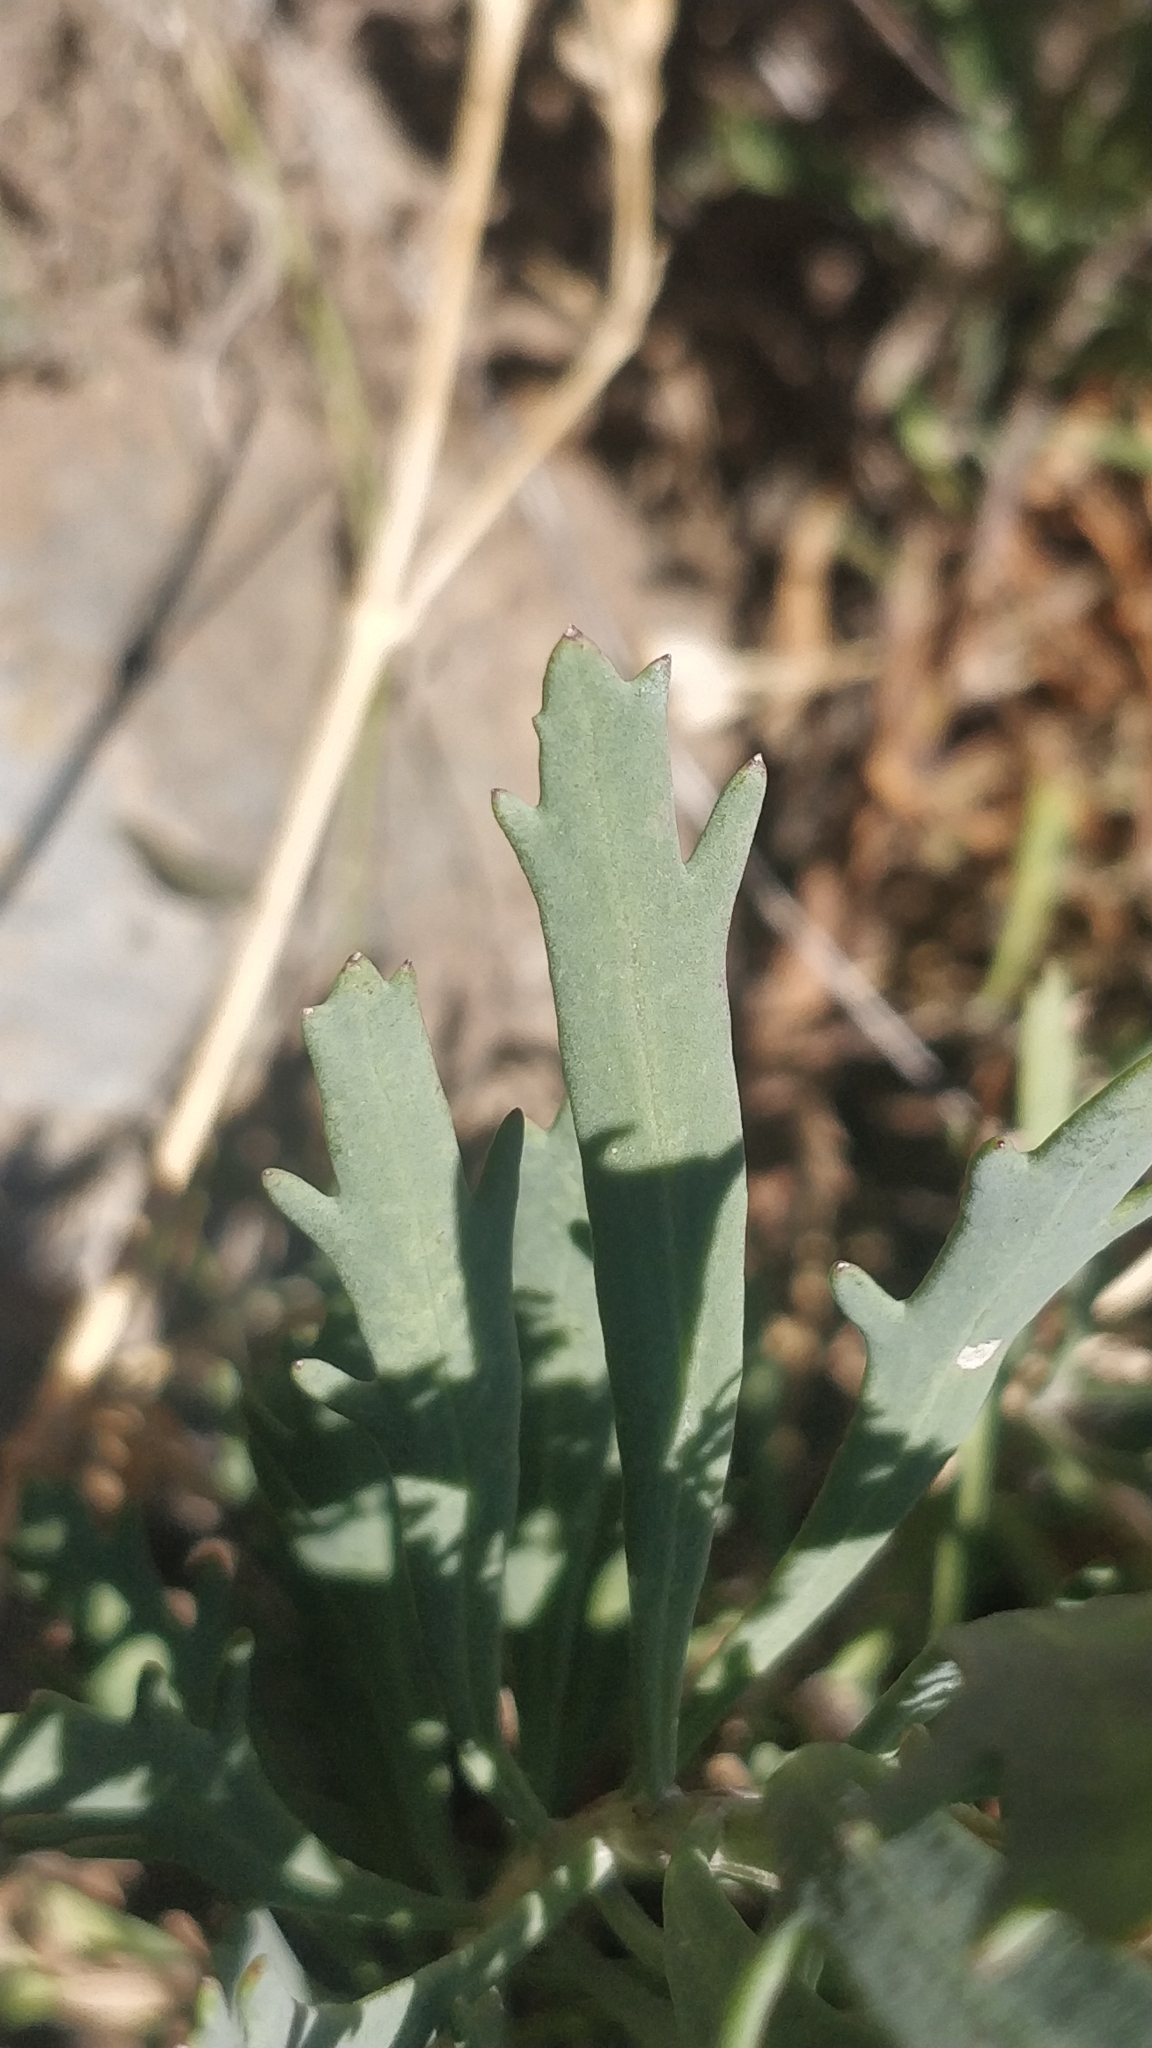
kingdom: Plantae
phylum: Tracheophyta
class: Magnoliopsida
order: Asterales
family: Asteraceae
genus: Bethencourtia
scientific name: Bethencourtia palmensis
